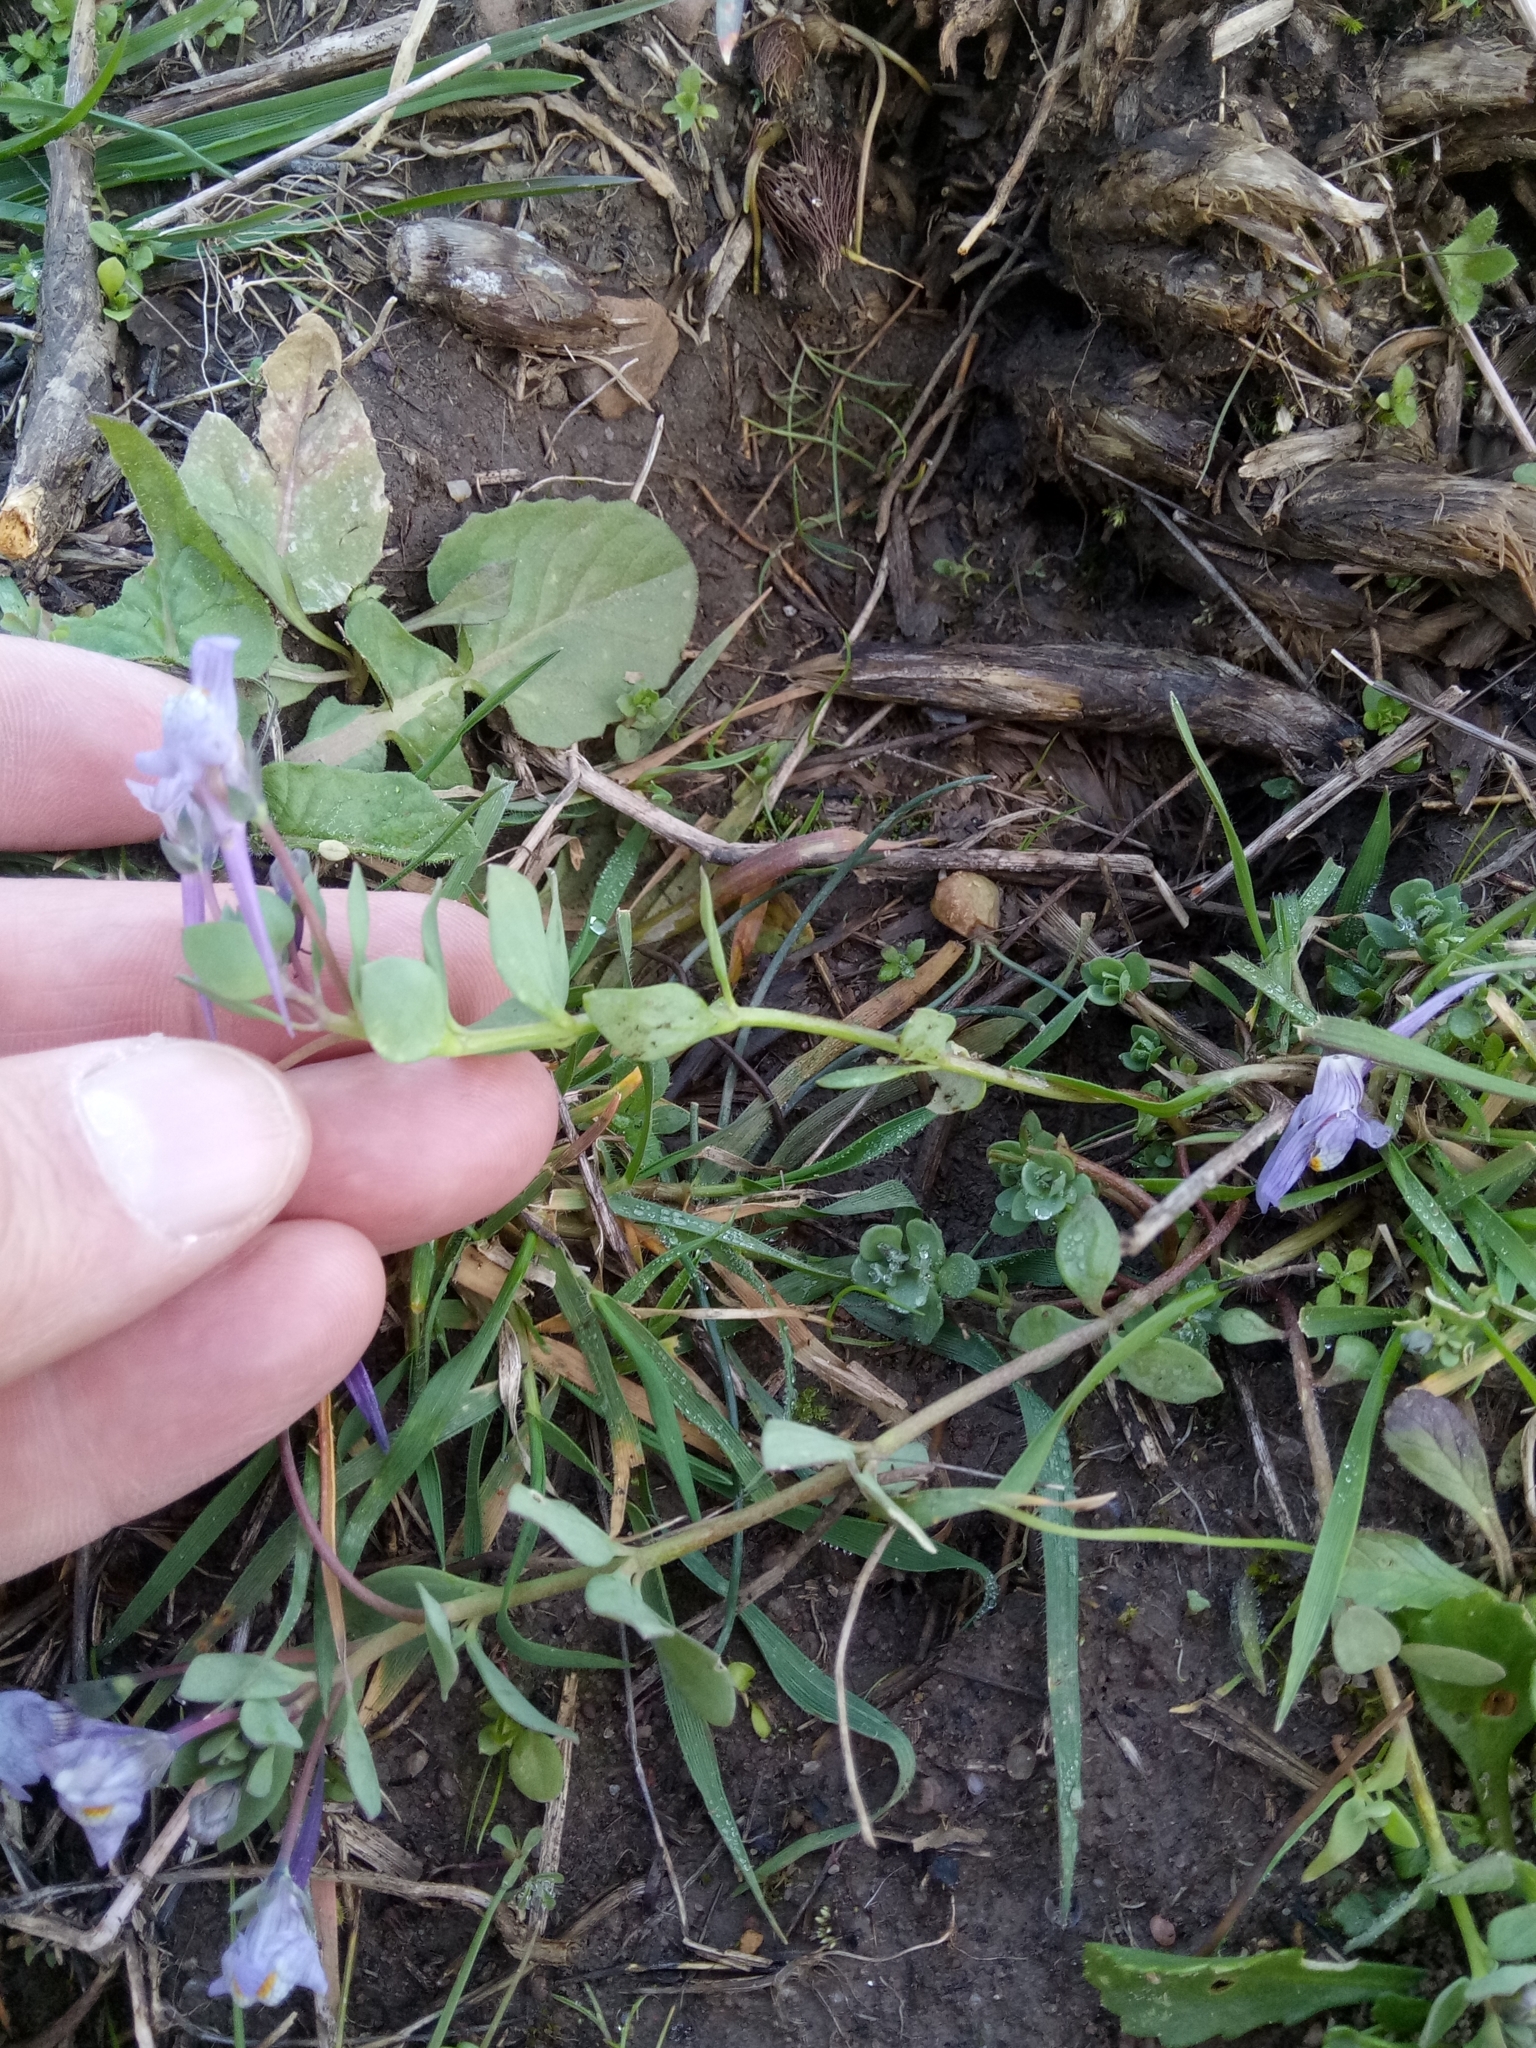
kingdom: Plantae
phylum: Tracheophyta
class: Magnoliopsida
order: Lamiales
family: Plantaginaceae
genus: Linaria
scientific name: Linaria reflexa
